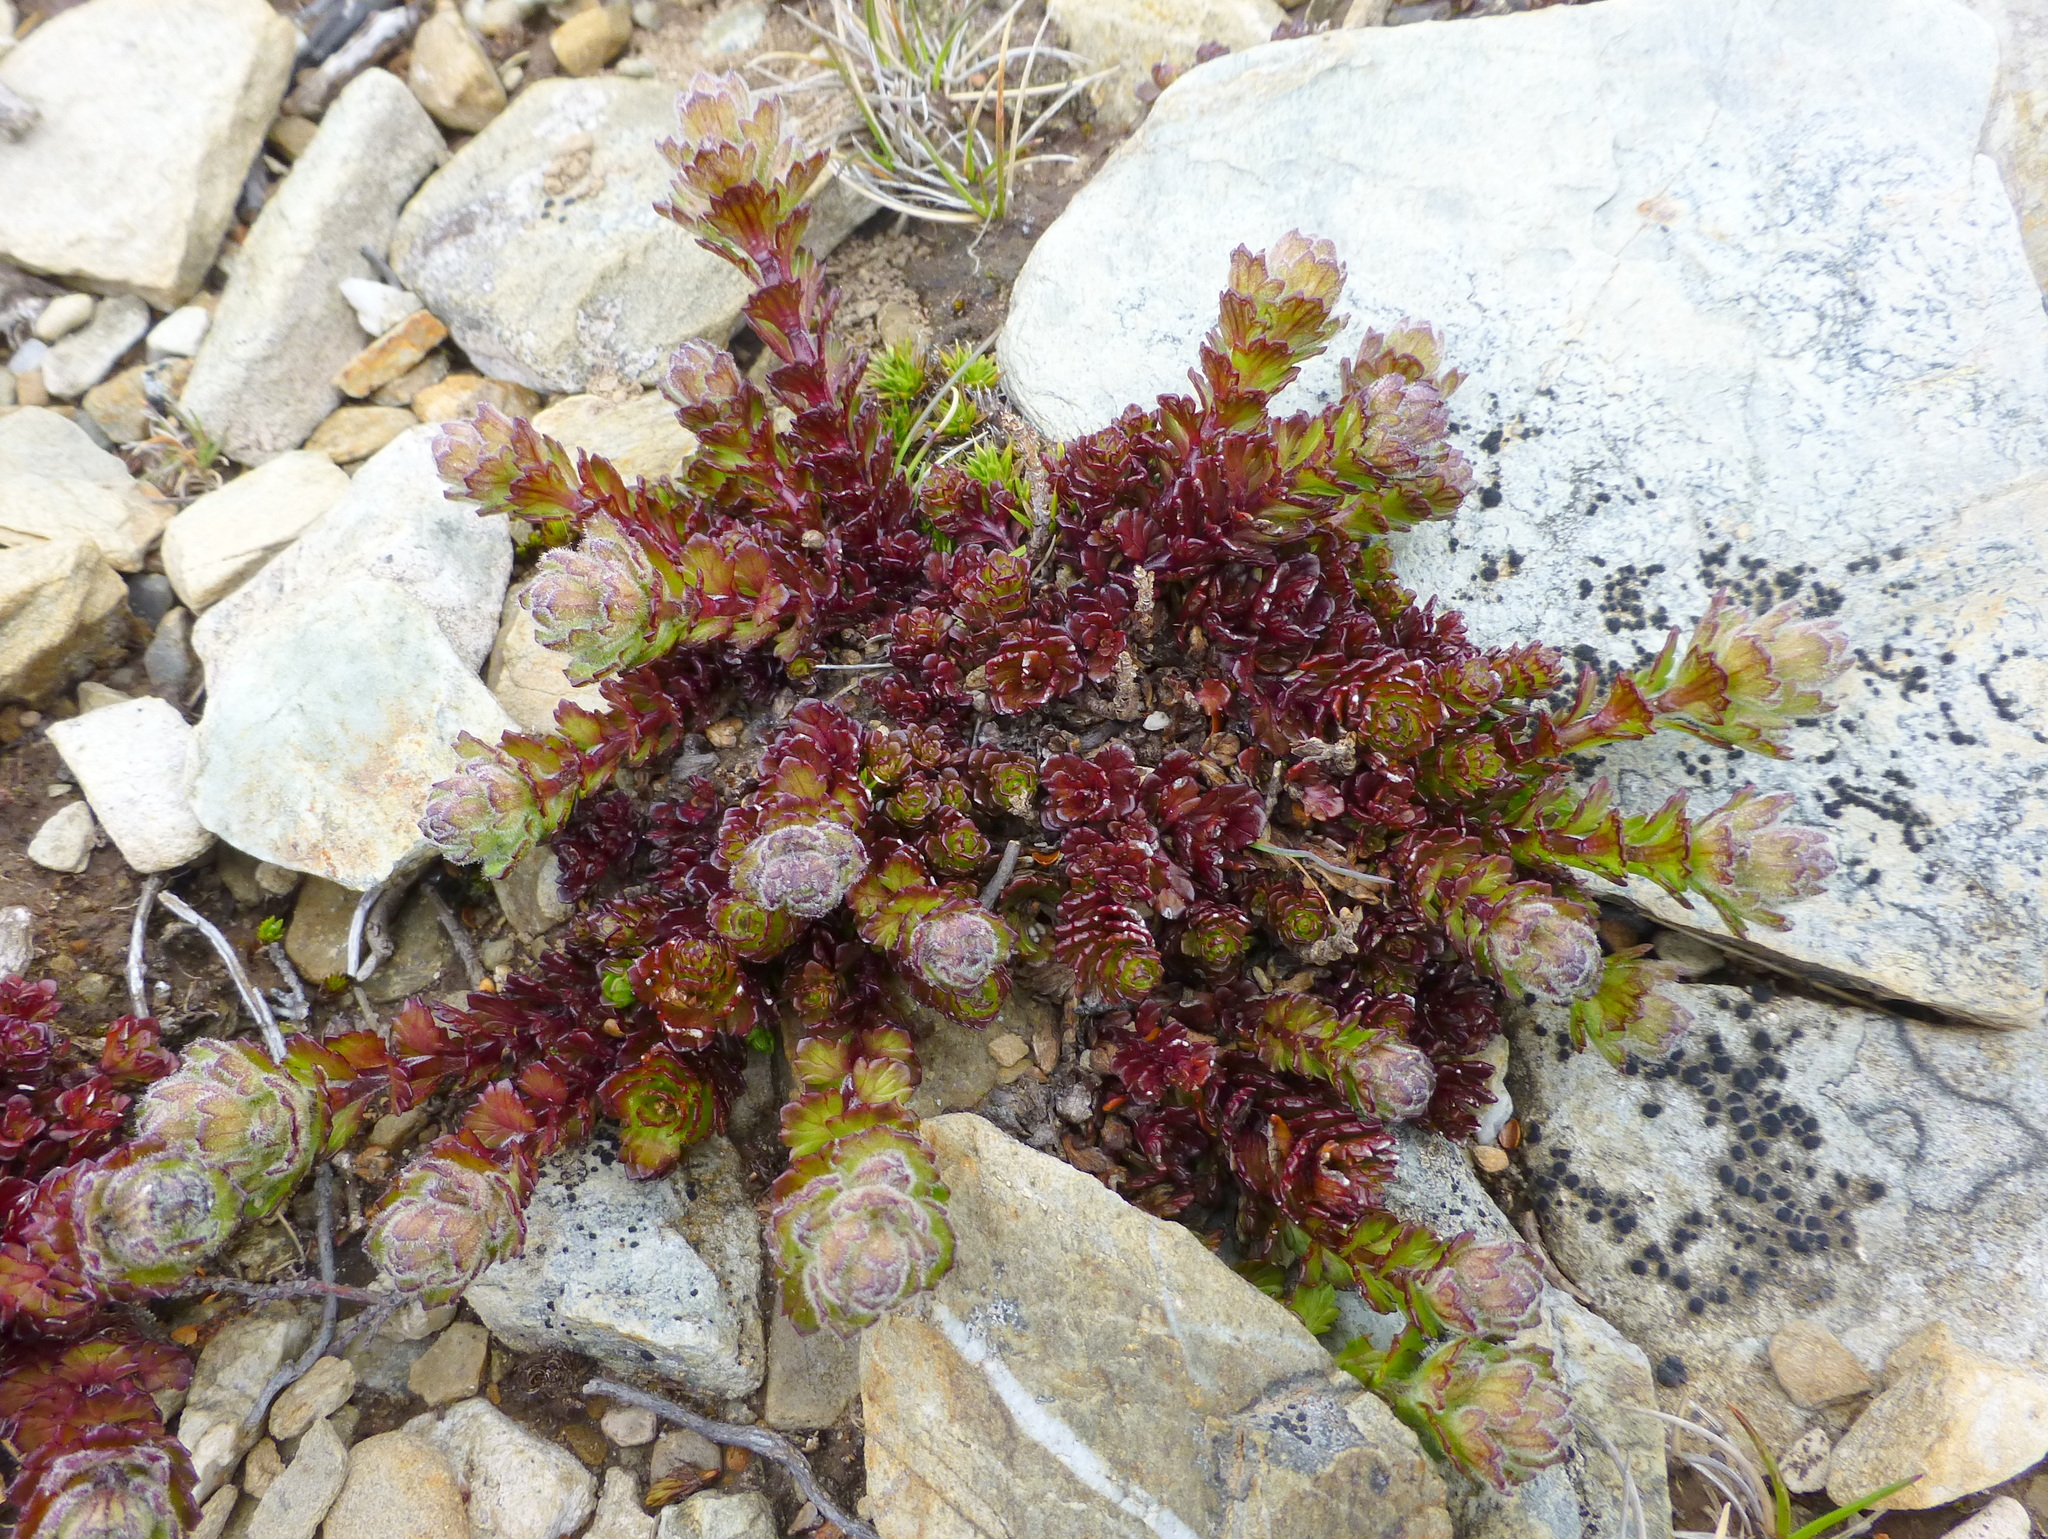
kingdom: Plantae
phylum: Tracheophyta
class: Magnoliopsida
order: Lamiales
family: Orobanchaceae
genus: Euphrasia
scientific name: Euphrasia collina
